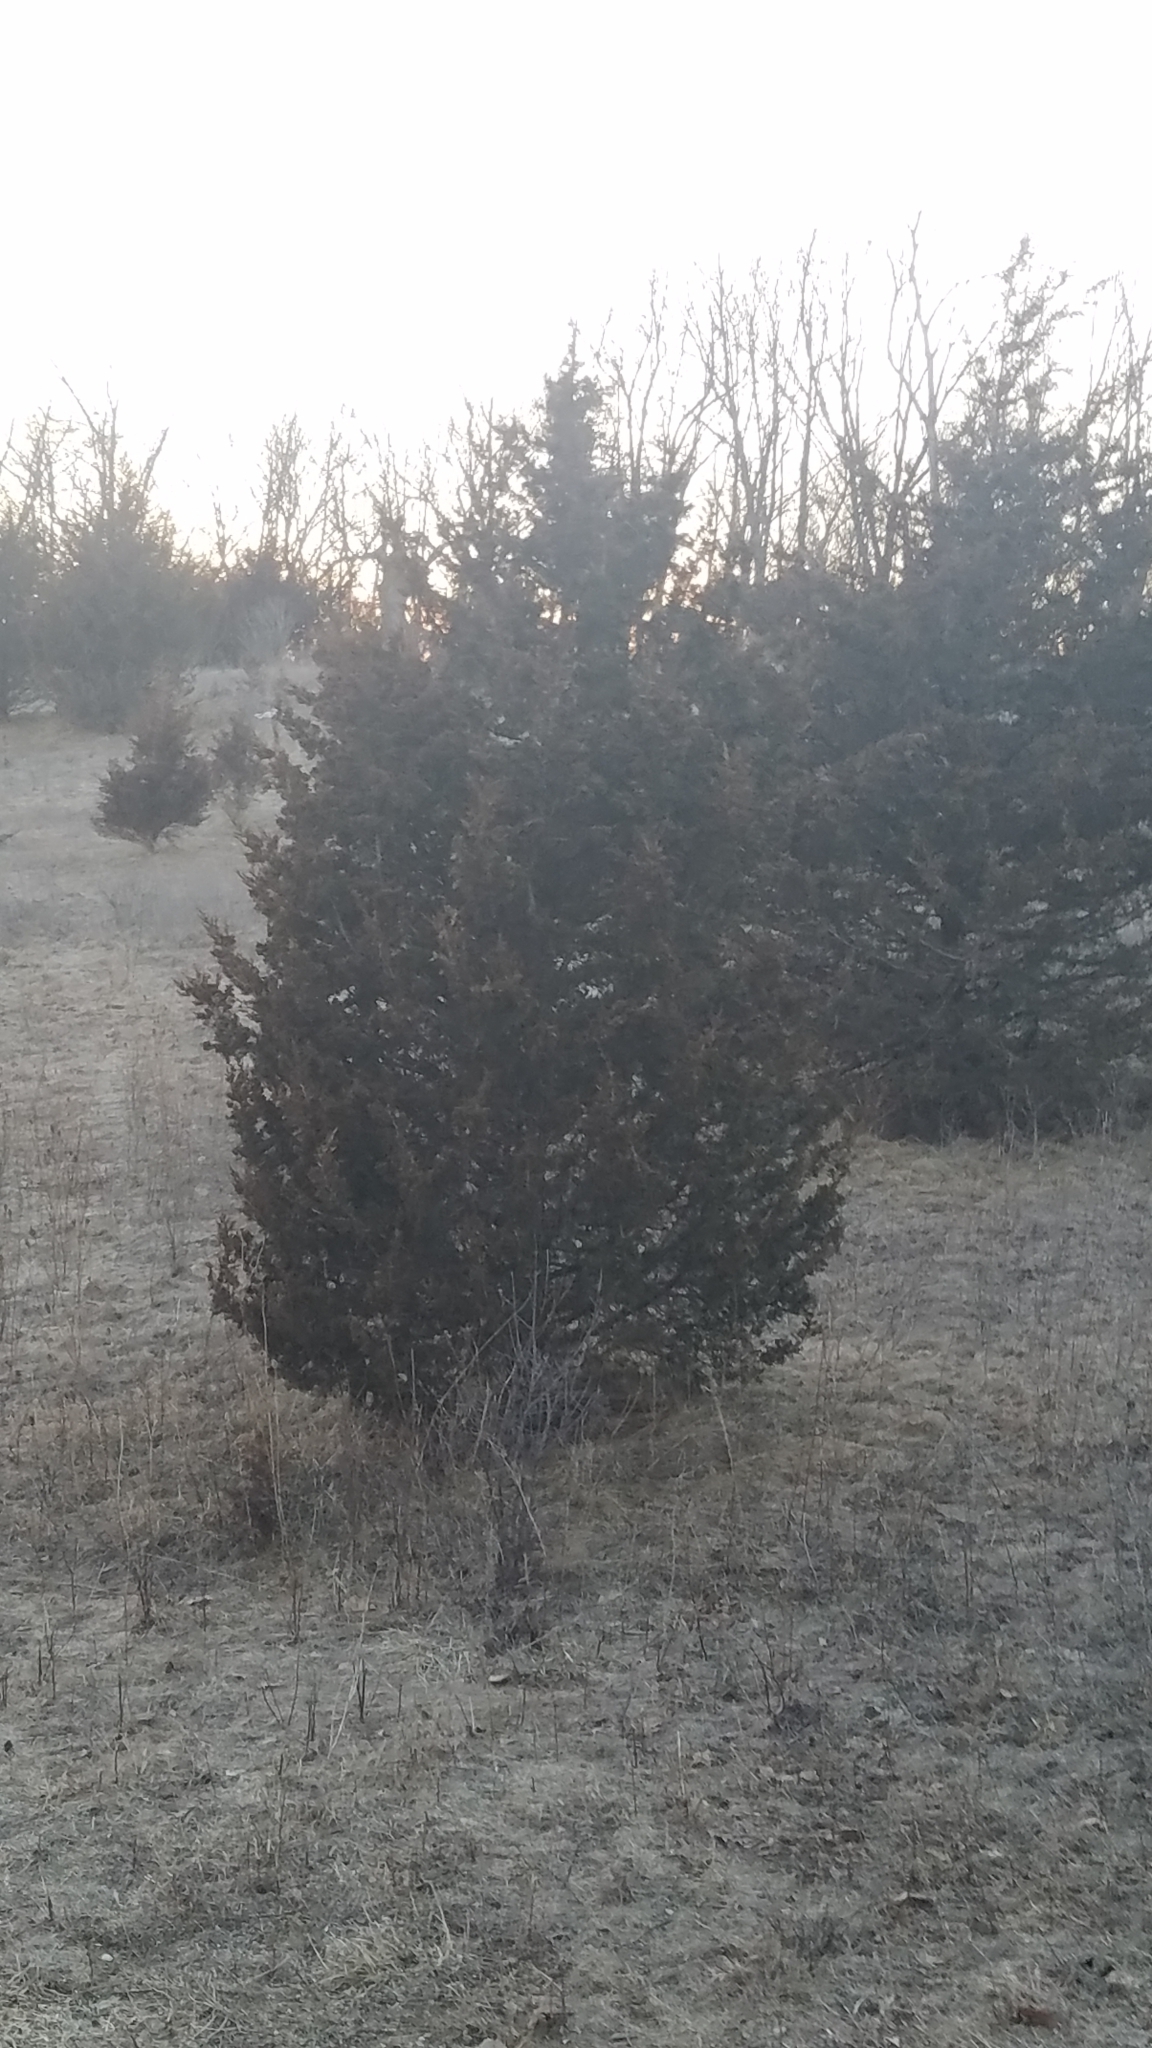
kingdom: Plantae
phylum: Tracheophyta
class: Pinopsida
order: Pinales
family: Cupressaceae
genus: Juniperus
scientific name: Juniperus virginiana
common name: Red juniper
